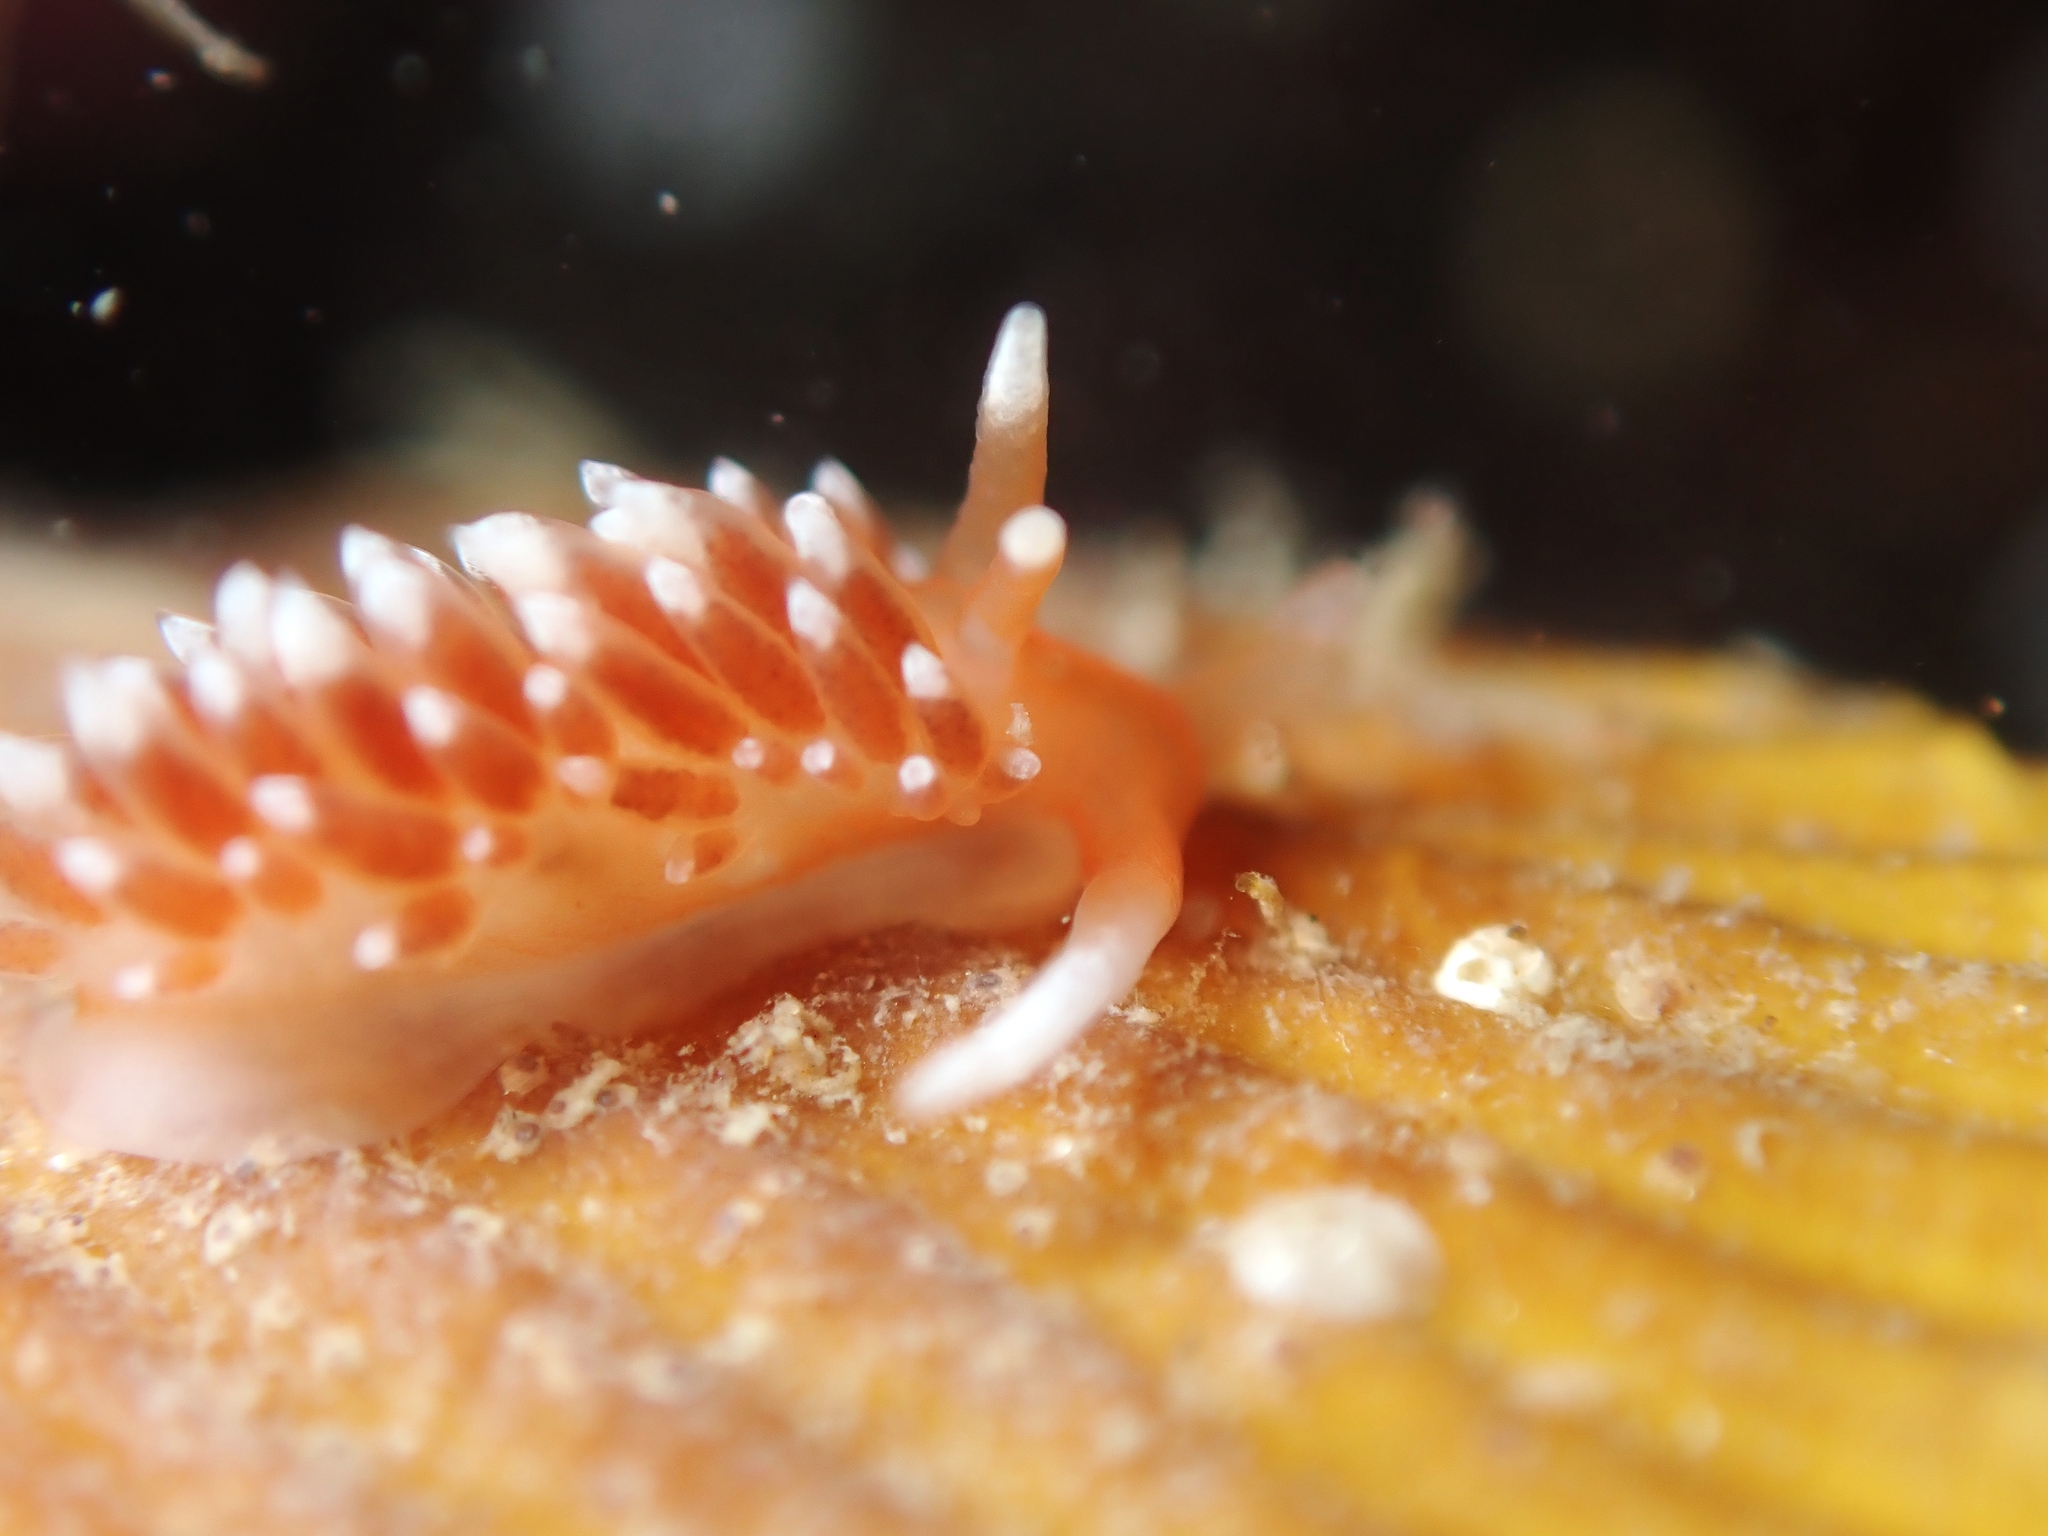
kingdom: Animalia
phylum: Mollusca
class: Gastropoda
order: Nudibranchia
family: Facelinidae
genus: Phidiana
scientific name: Phidiana milleri
